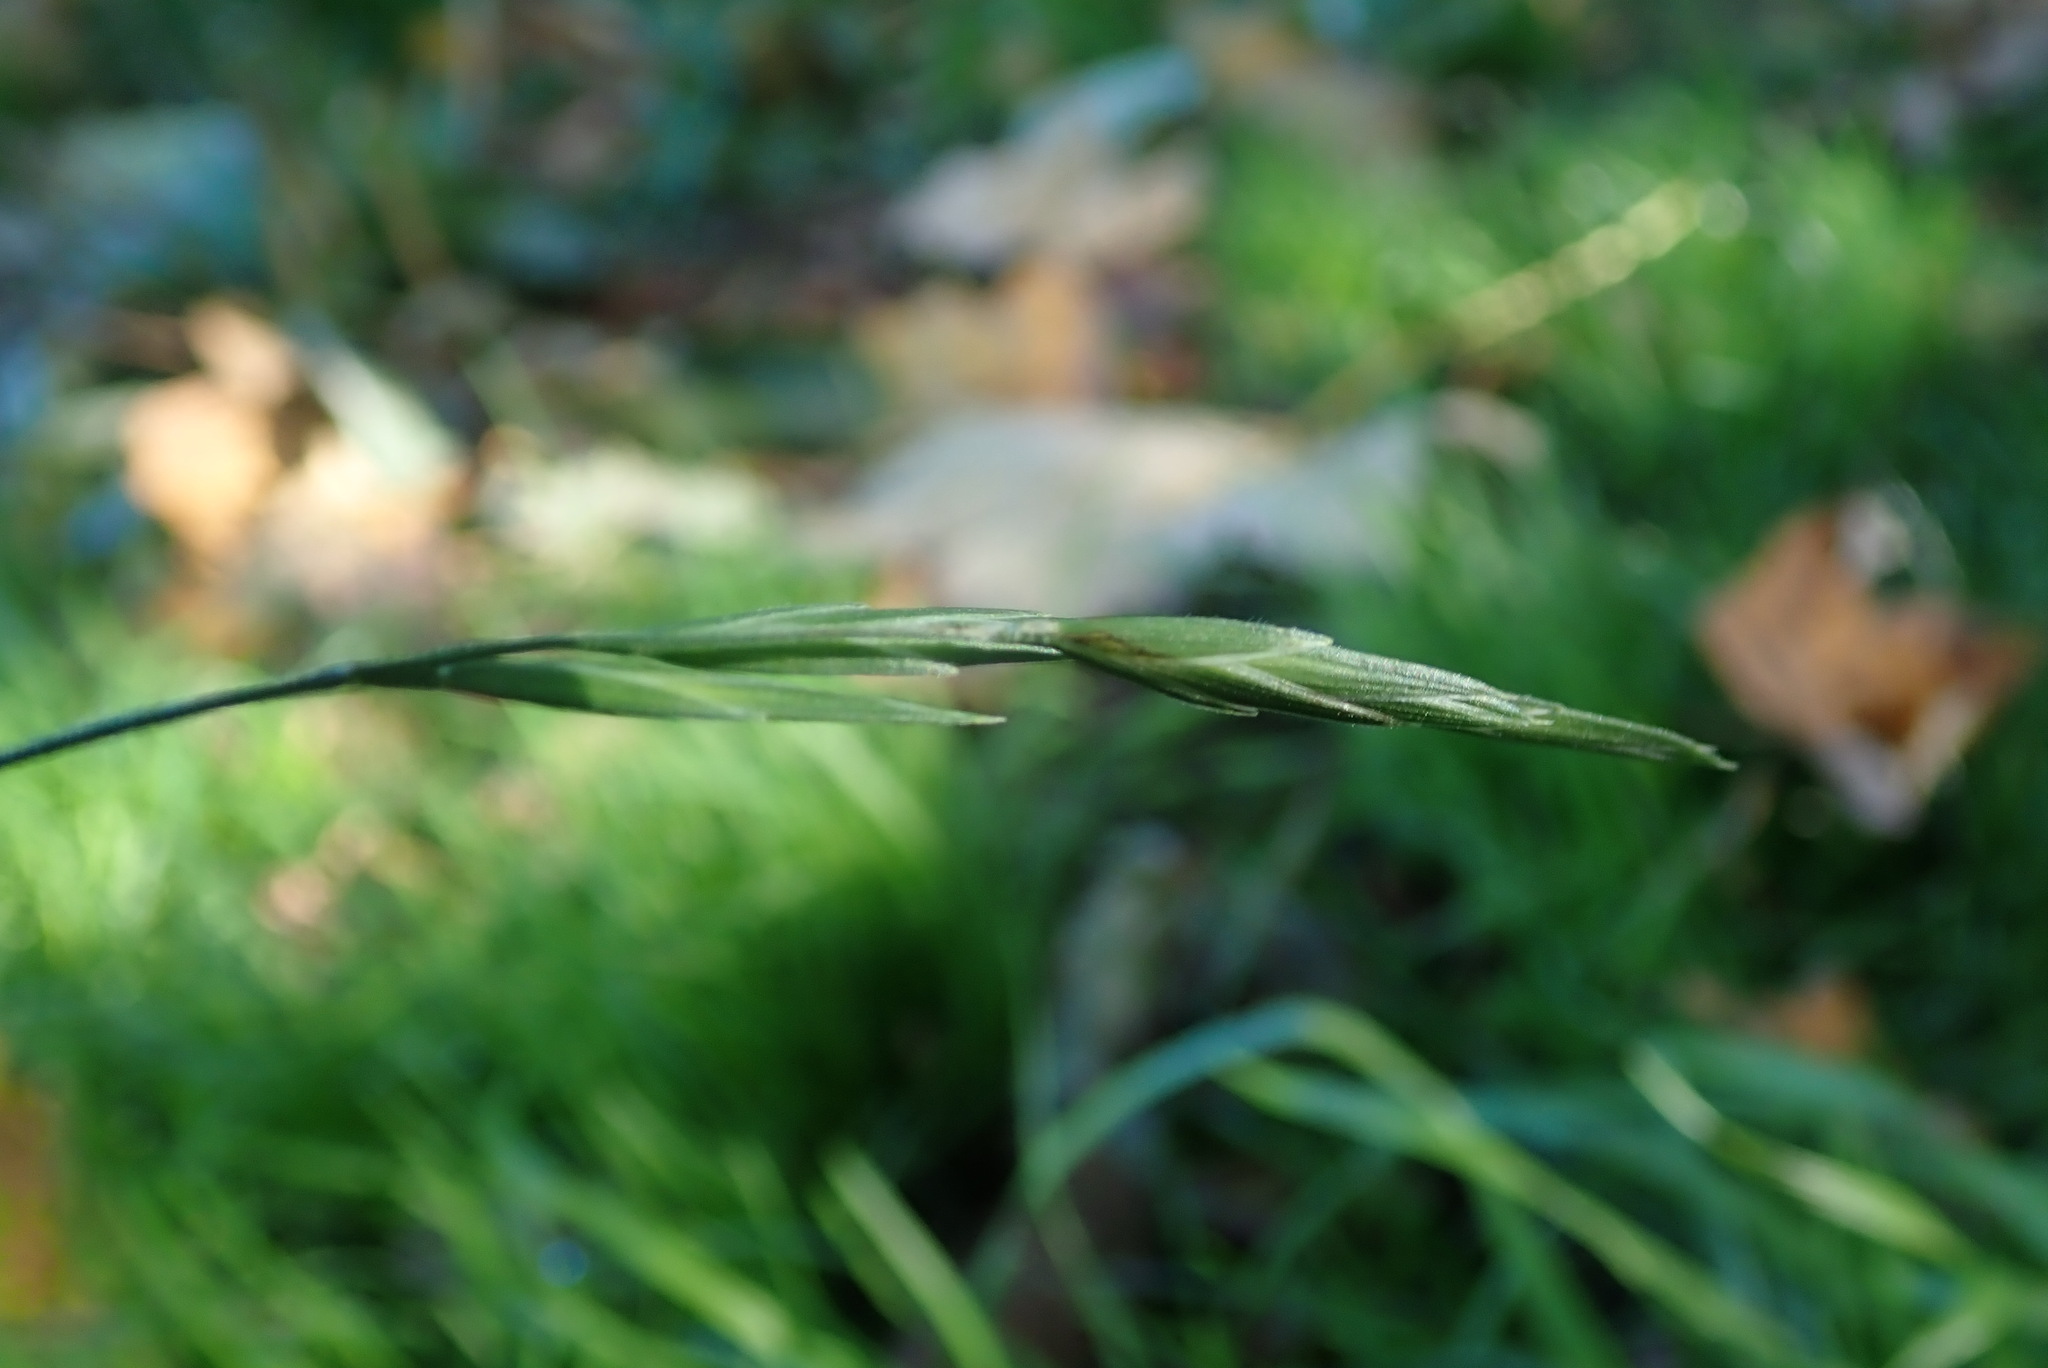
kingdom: Plantae
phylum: Tracheophyta
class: Liliopsida
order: Poales
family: Poaceae
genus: Bromus
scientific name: Bromus catharticus
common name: Rescuegrass
